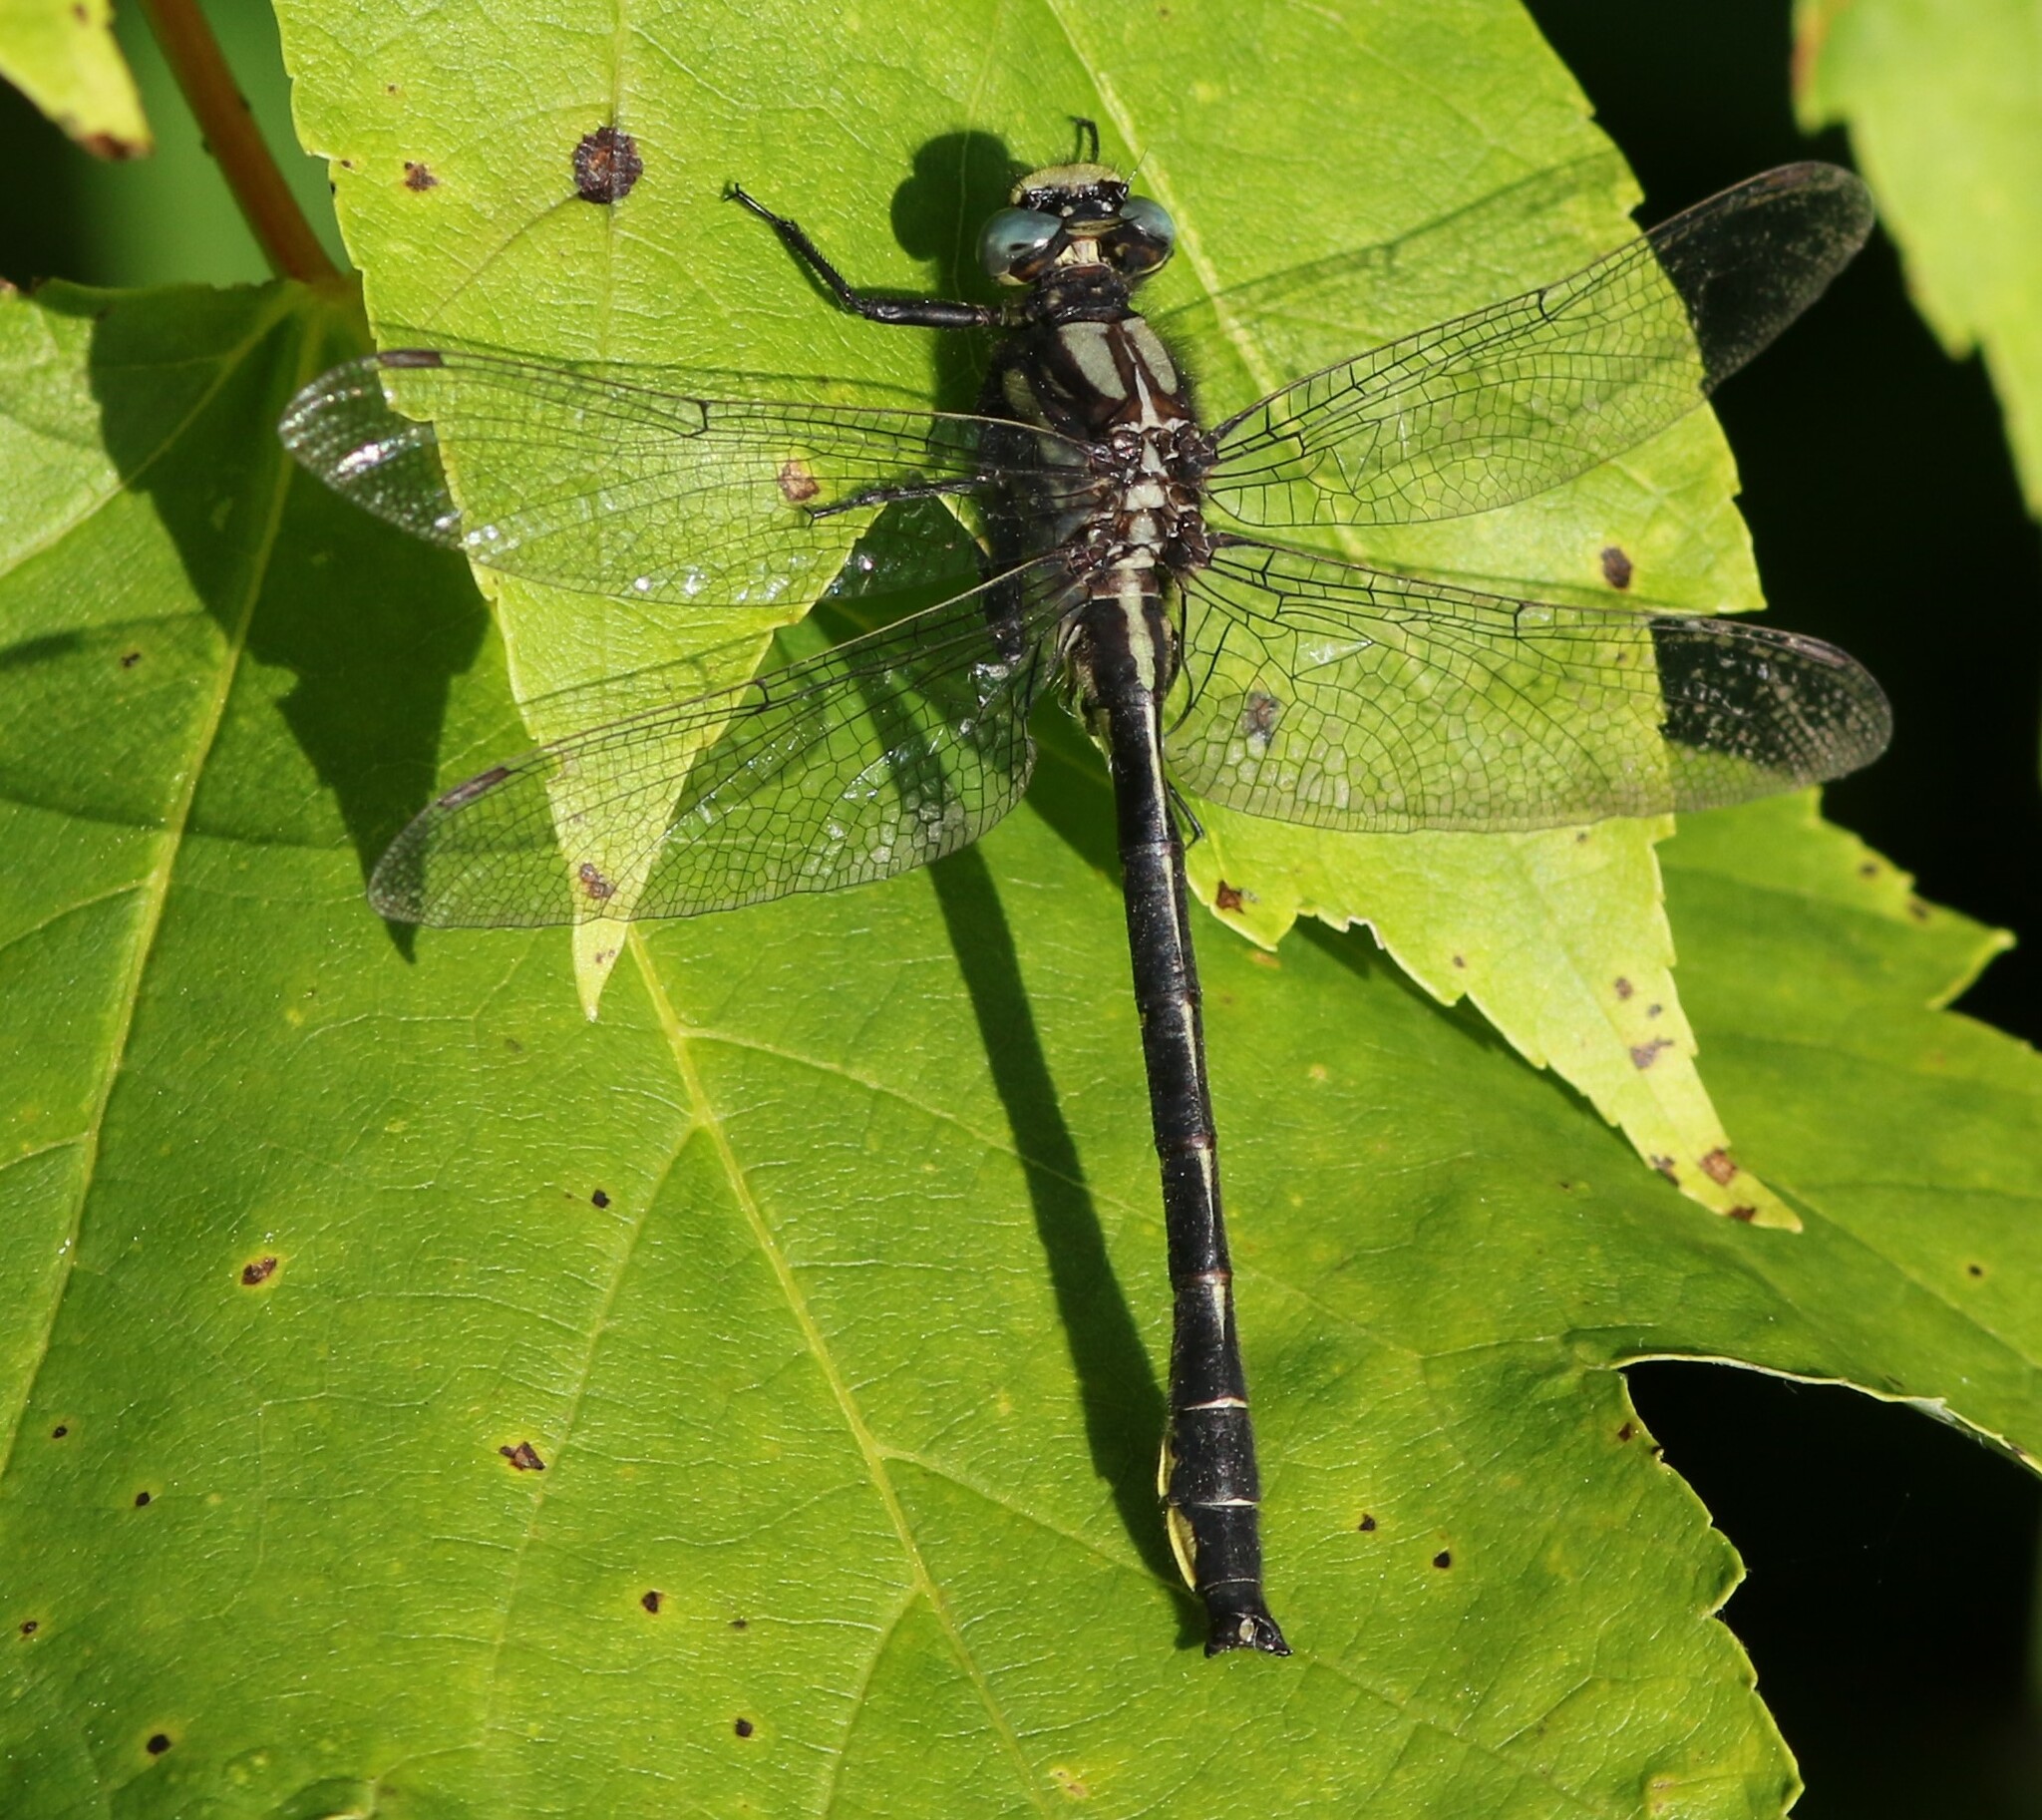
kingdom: Animalia
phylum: Arthropoda
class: Insecta
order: Odonata
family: Gomphidae
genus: Phanogomphus
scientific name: Phanogomphus borealis
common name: Beaverpond clubtail
